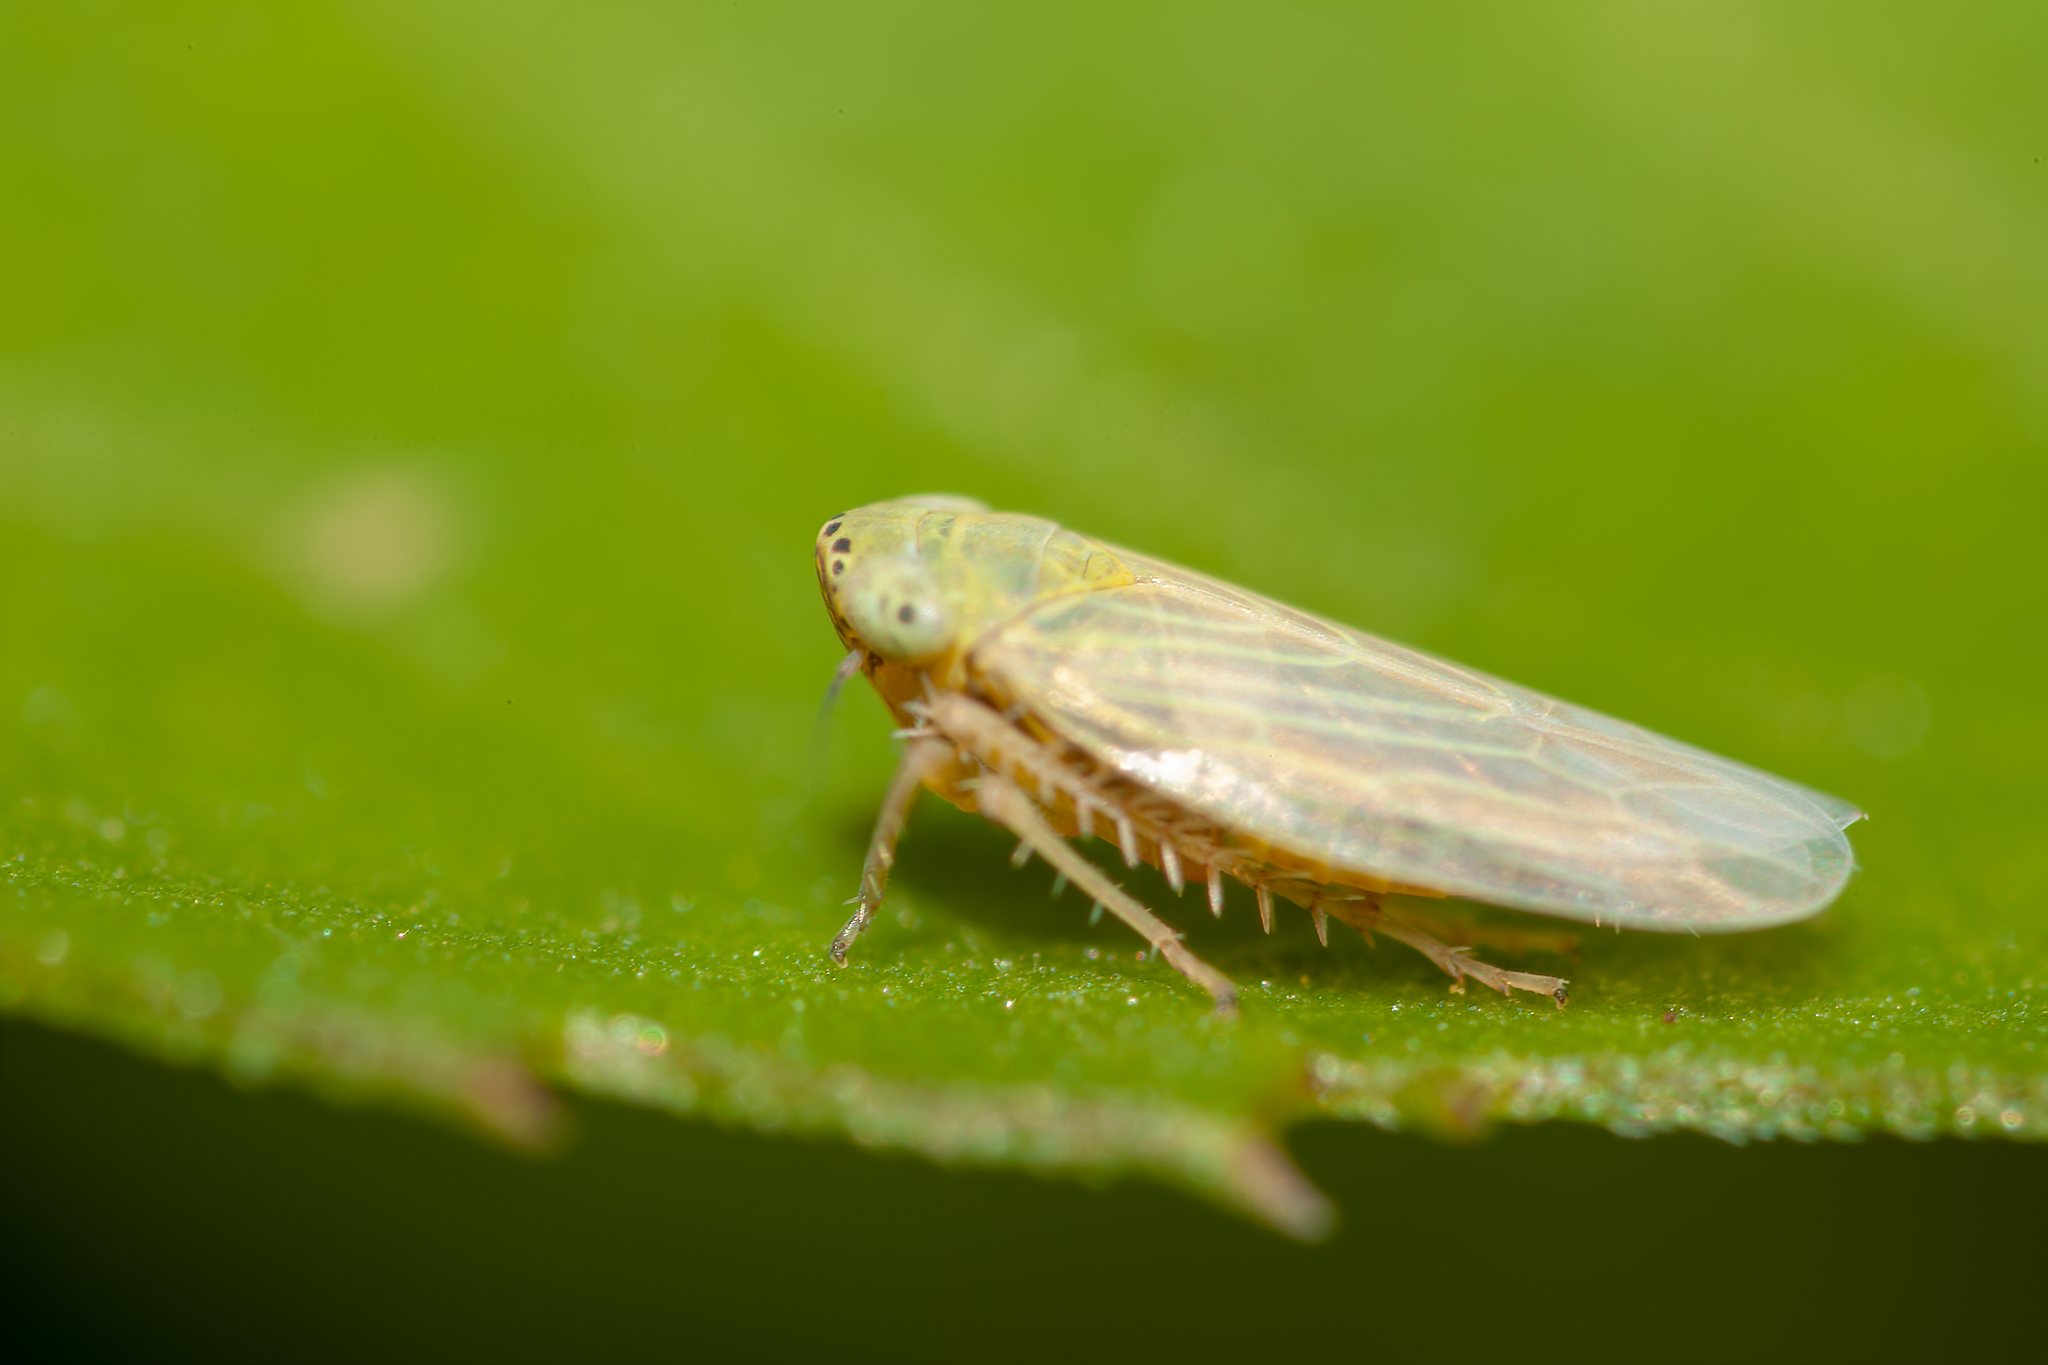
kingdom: Animalia
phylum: Arthropoda
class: Insecta
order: Hemiptera
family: Cicadellidae
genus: Graminella
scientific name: Graminella nigrifrons
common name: Blackfaced leafhopper
